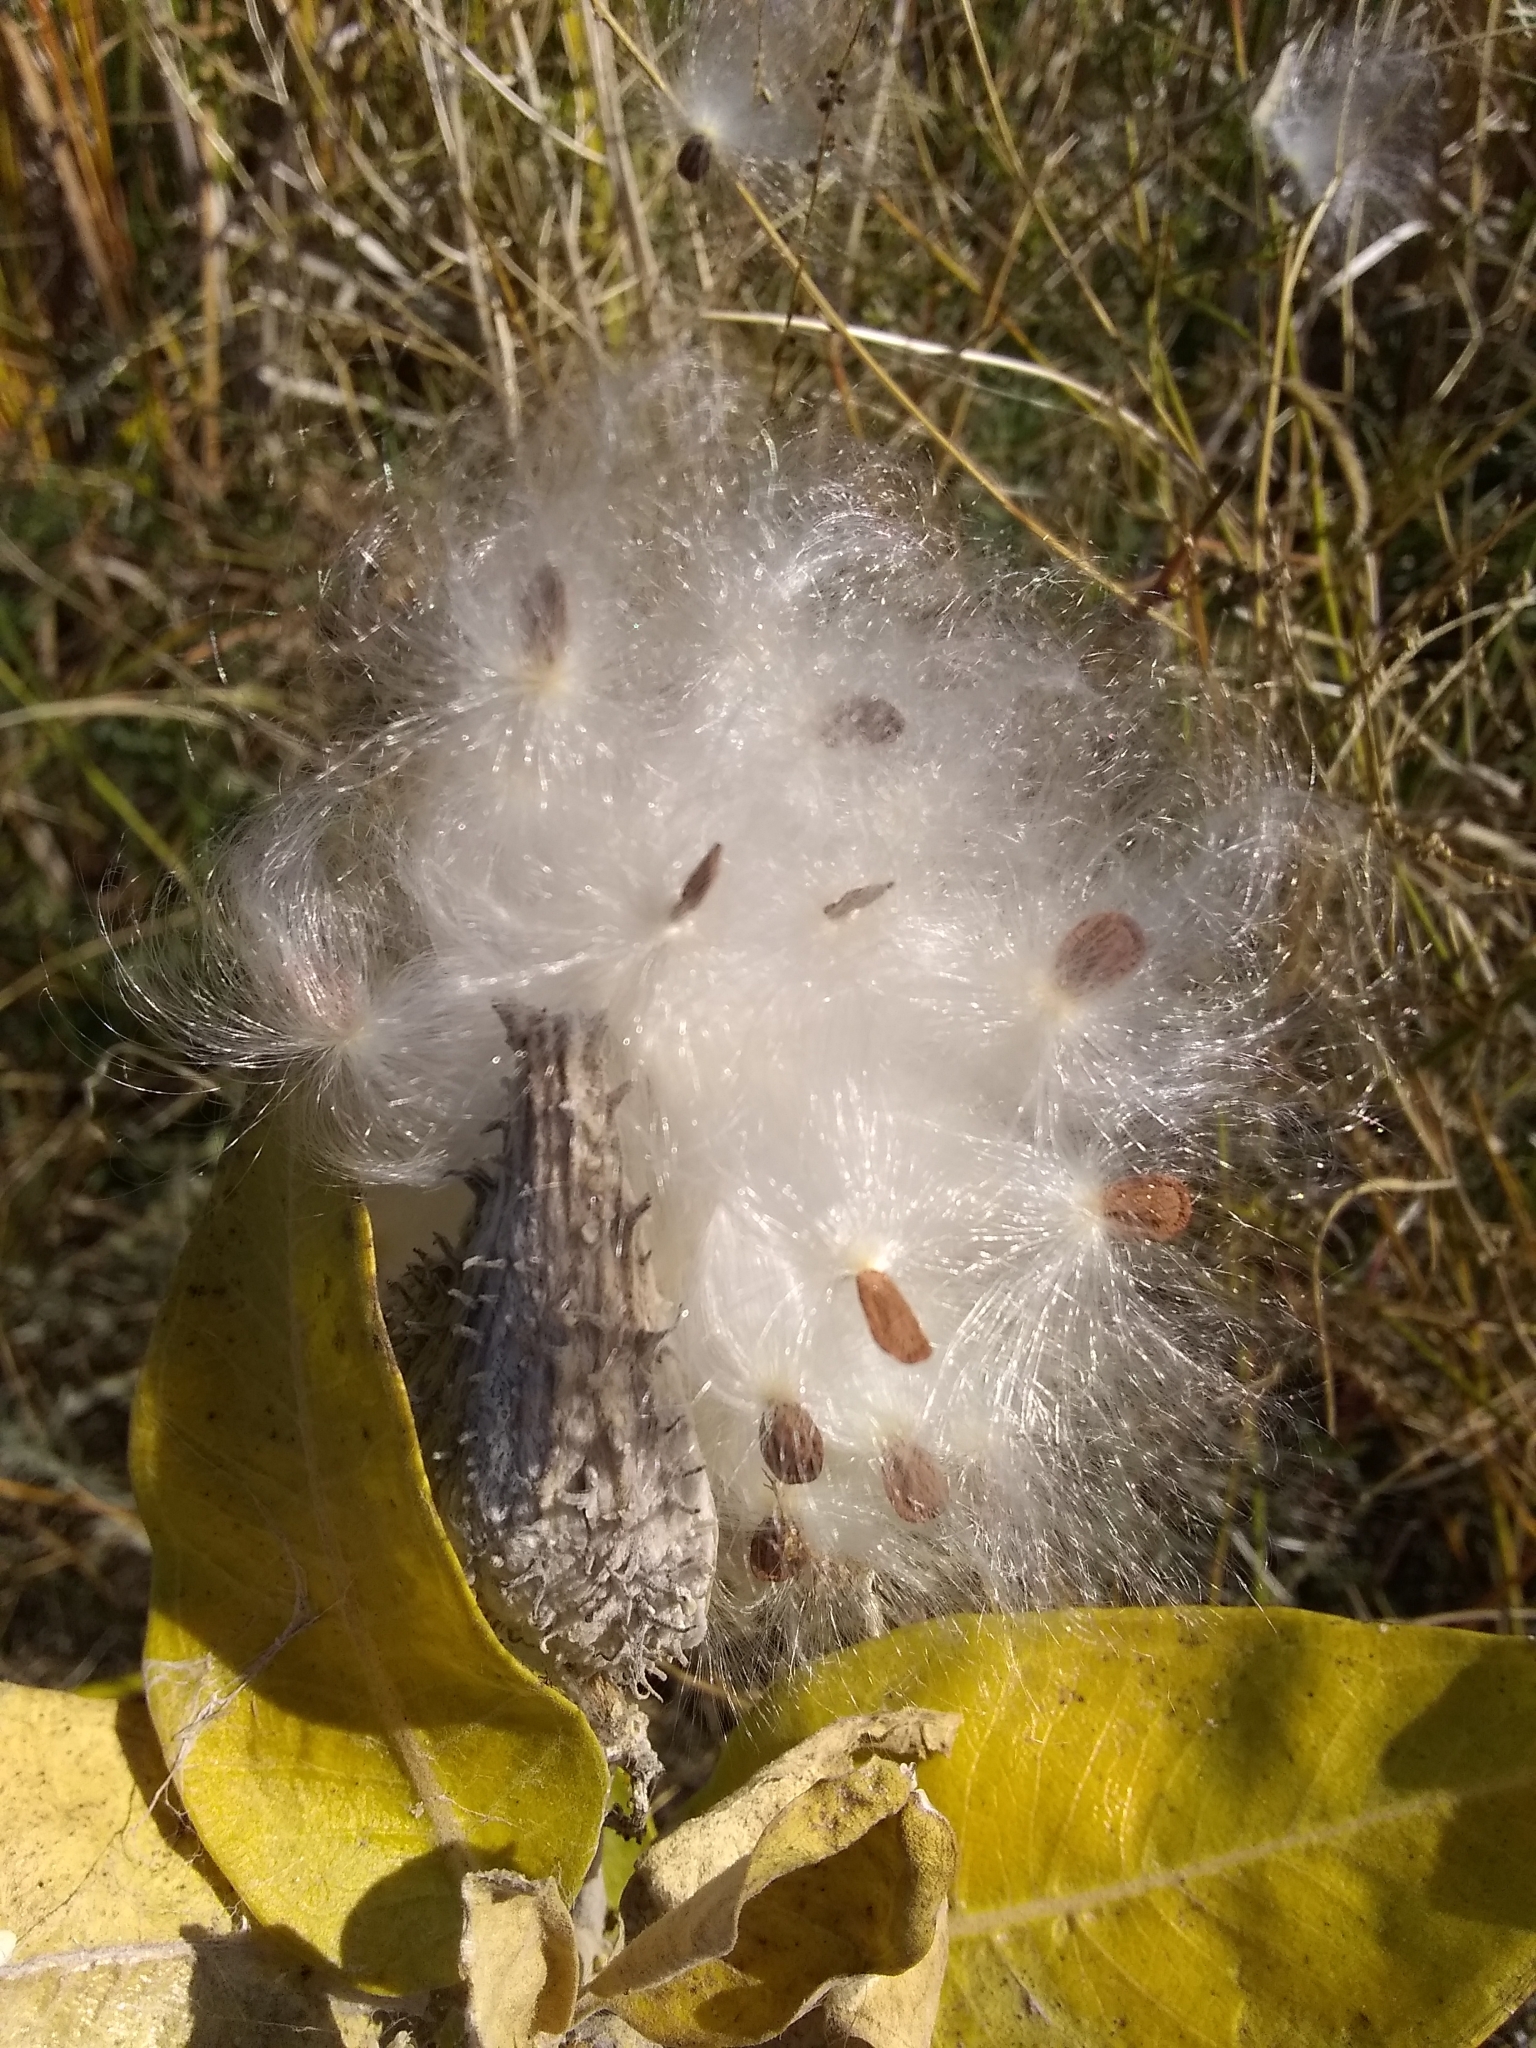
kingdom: Plantae
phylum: Tracheophyta
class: Magnoliopsida
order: Gentianales
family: Apocynaceae
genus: Asclepias
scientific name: Asclepias speciosa
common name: Showy milkweed
